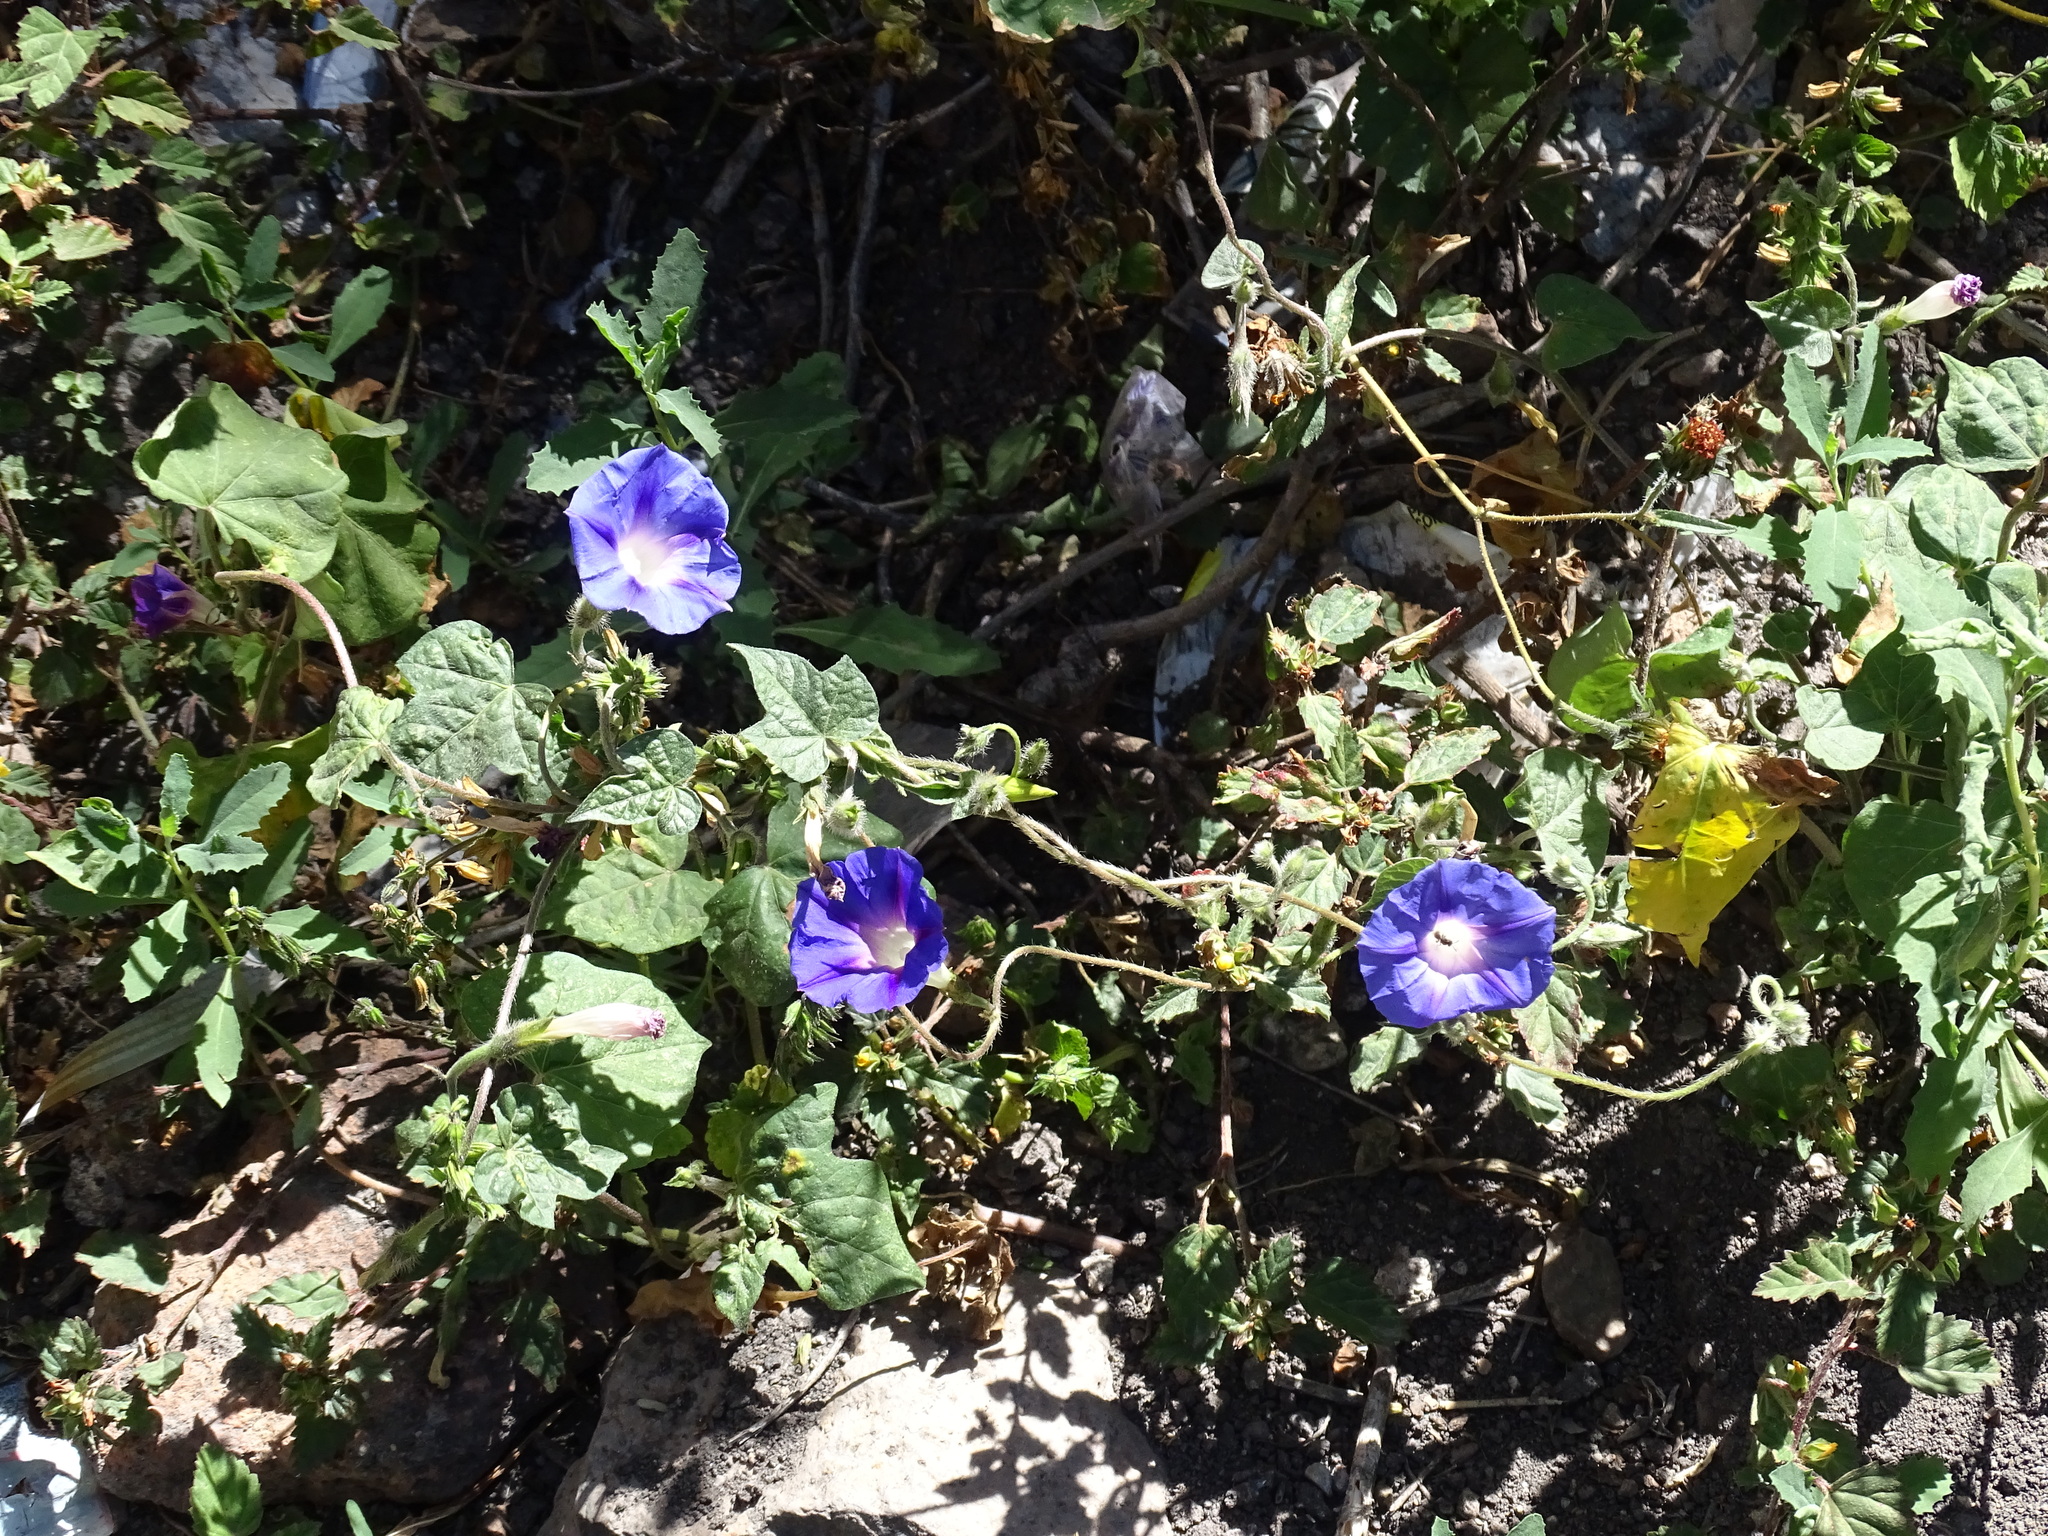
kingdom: Plantae
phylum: Tracheophyta
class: Magnoliopsida
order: Solanales
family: Convolvulaceae
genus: Ipomoea
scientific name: Ipomoea purpurea
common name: Common morning-glory
